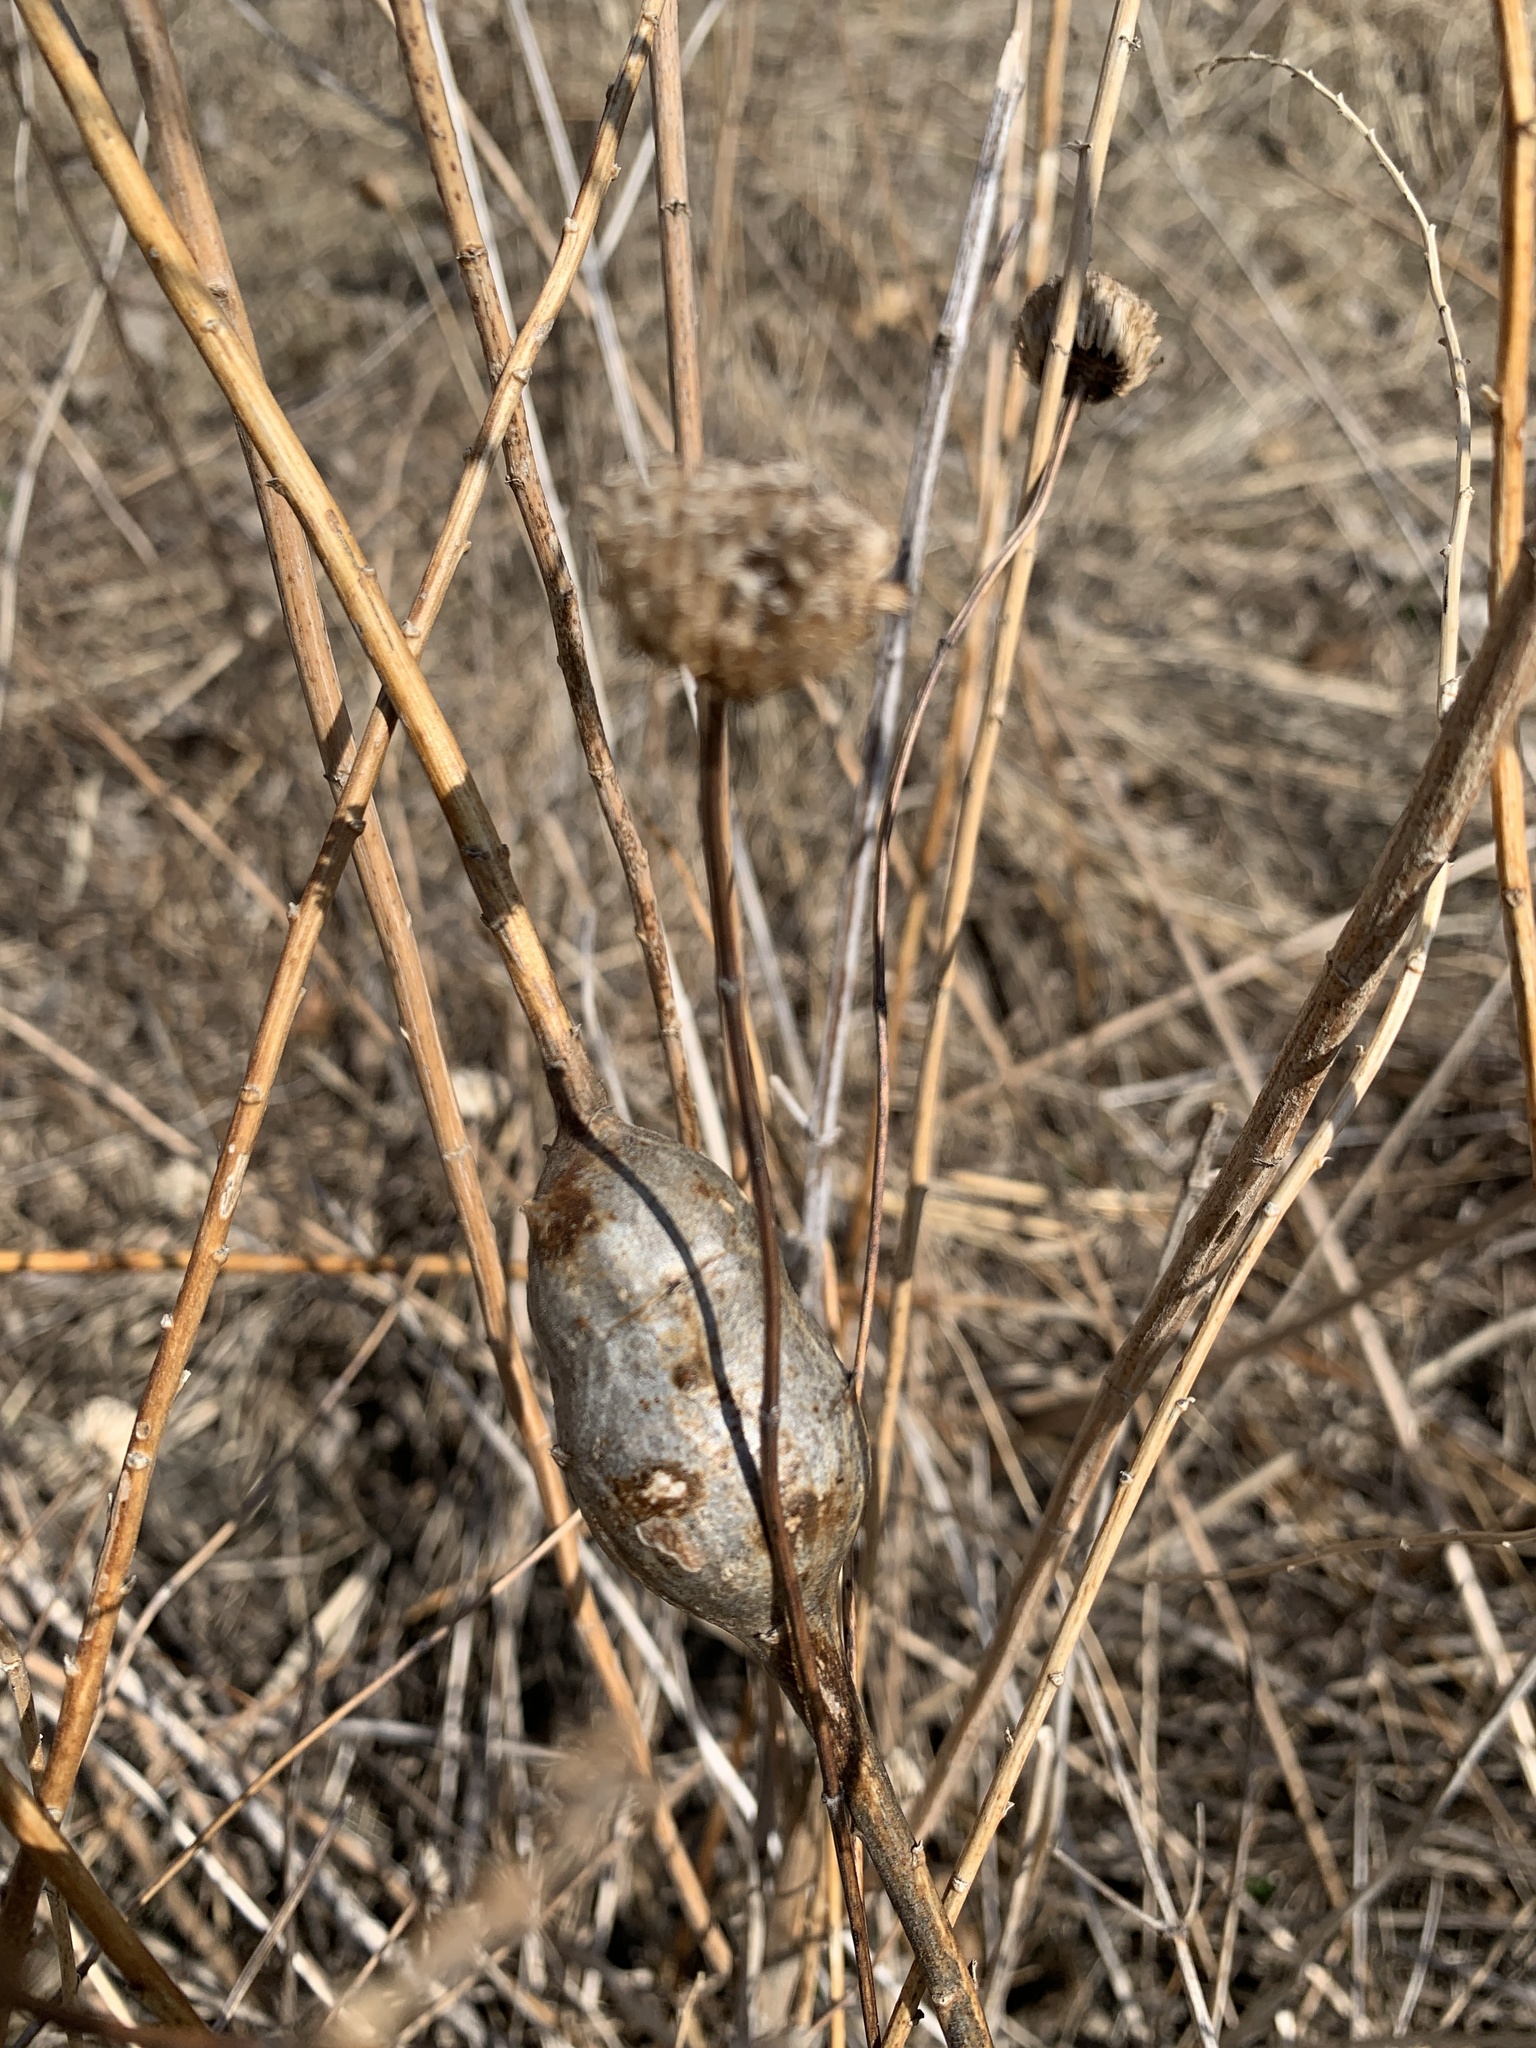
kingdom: Animalia
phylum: Arthropoda
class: Insecta
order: Diptera
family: Tephritidae
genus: Eurosta
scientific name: Eurosta solidaginis
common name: Goldenrod gall fly
